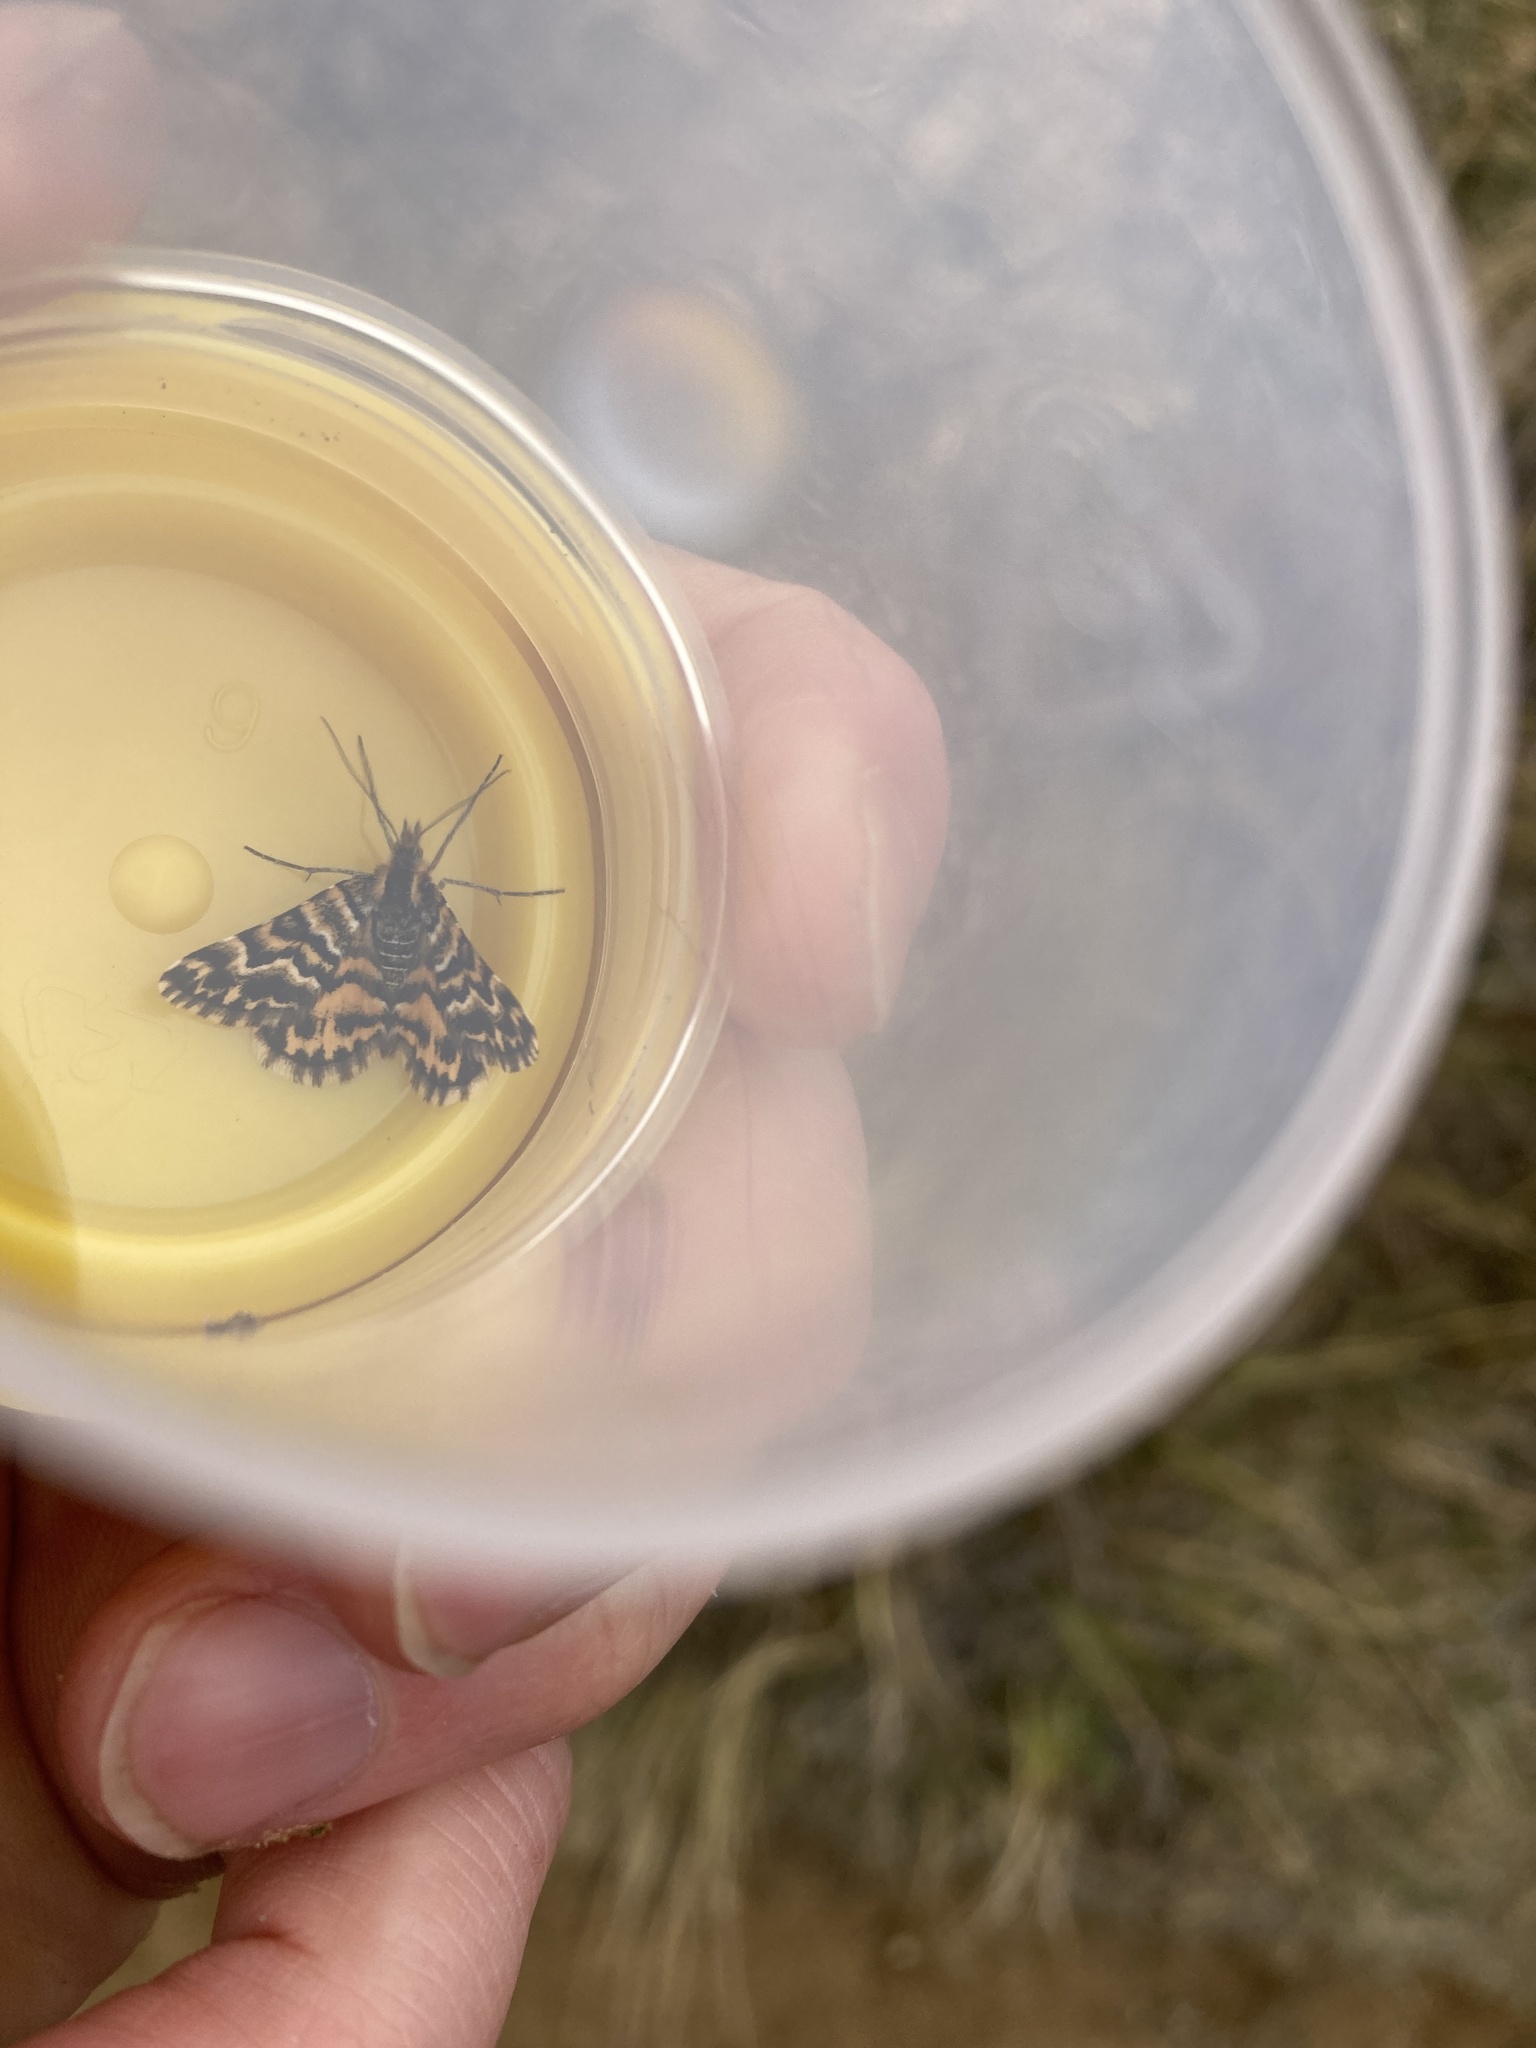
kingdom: Animalia
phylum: Arthropoda
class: Insecta
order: Lepidoptera
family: Geometridae
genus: Notoreas
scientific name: Notoreas perornata
